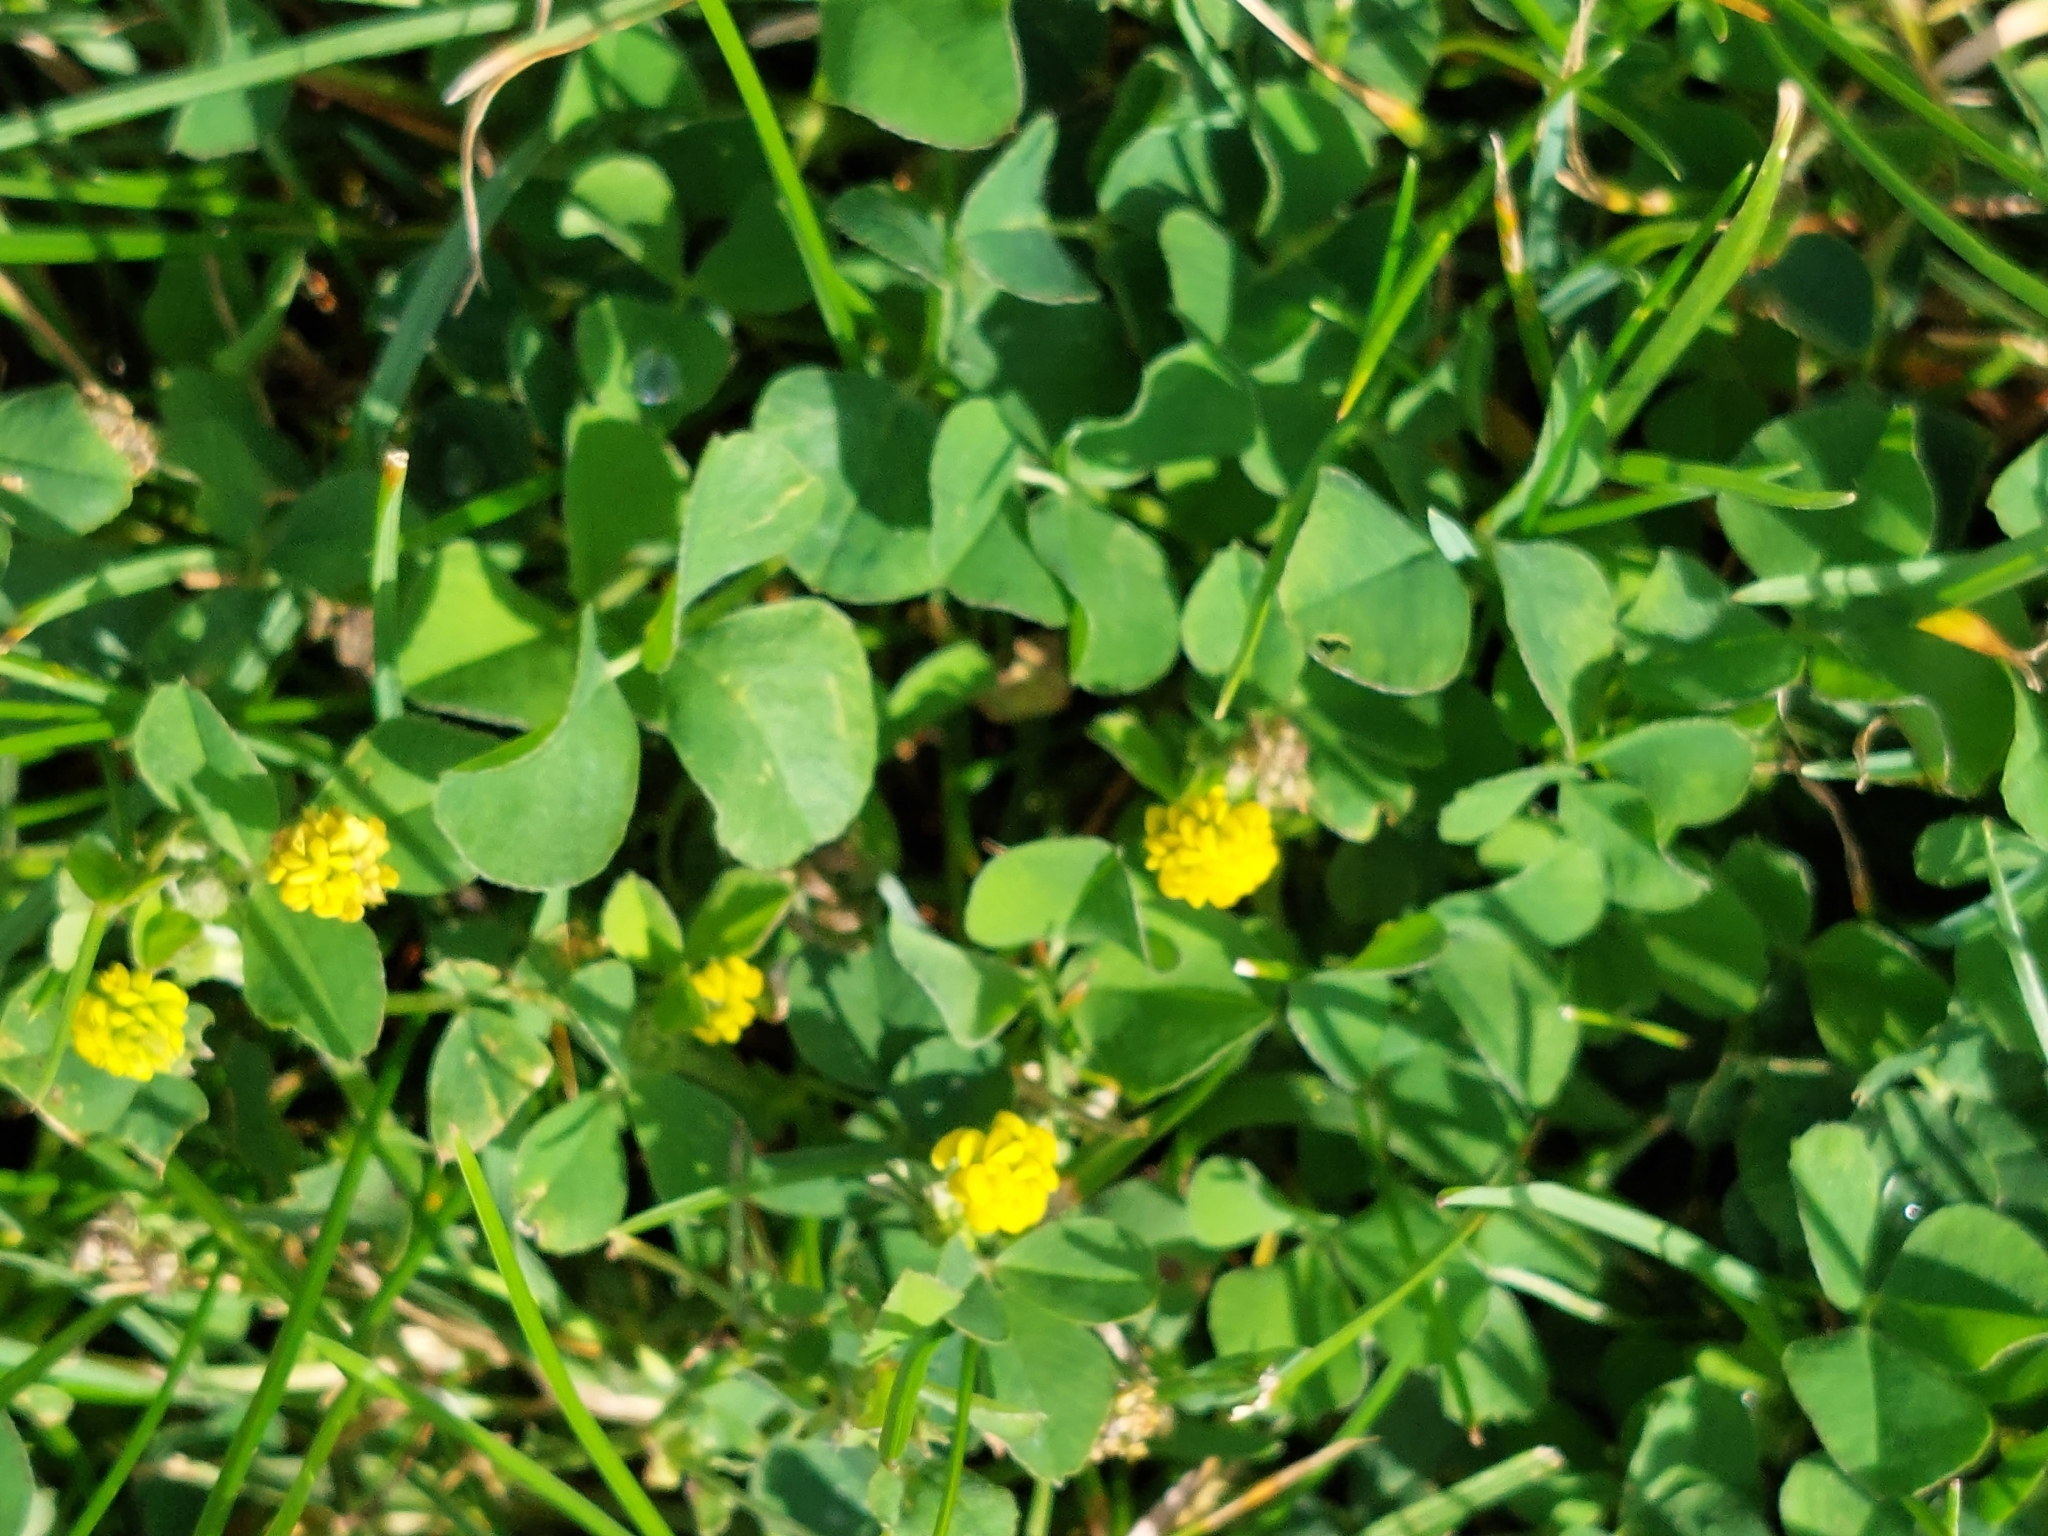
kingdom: Plantae
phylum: Tracheophyta
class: Magnoliopsida
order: Fabales
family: Fabaceae
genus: Medicago
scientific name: Medicago lupulina
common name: Black medick
